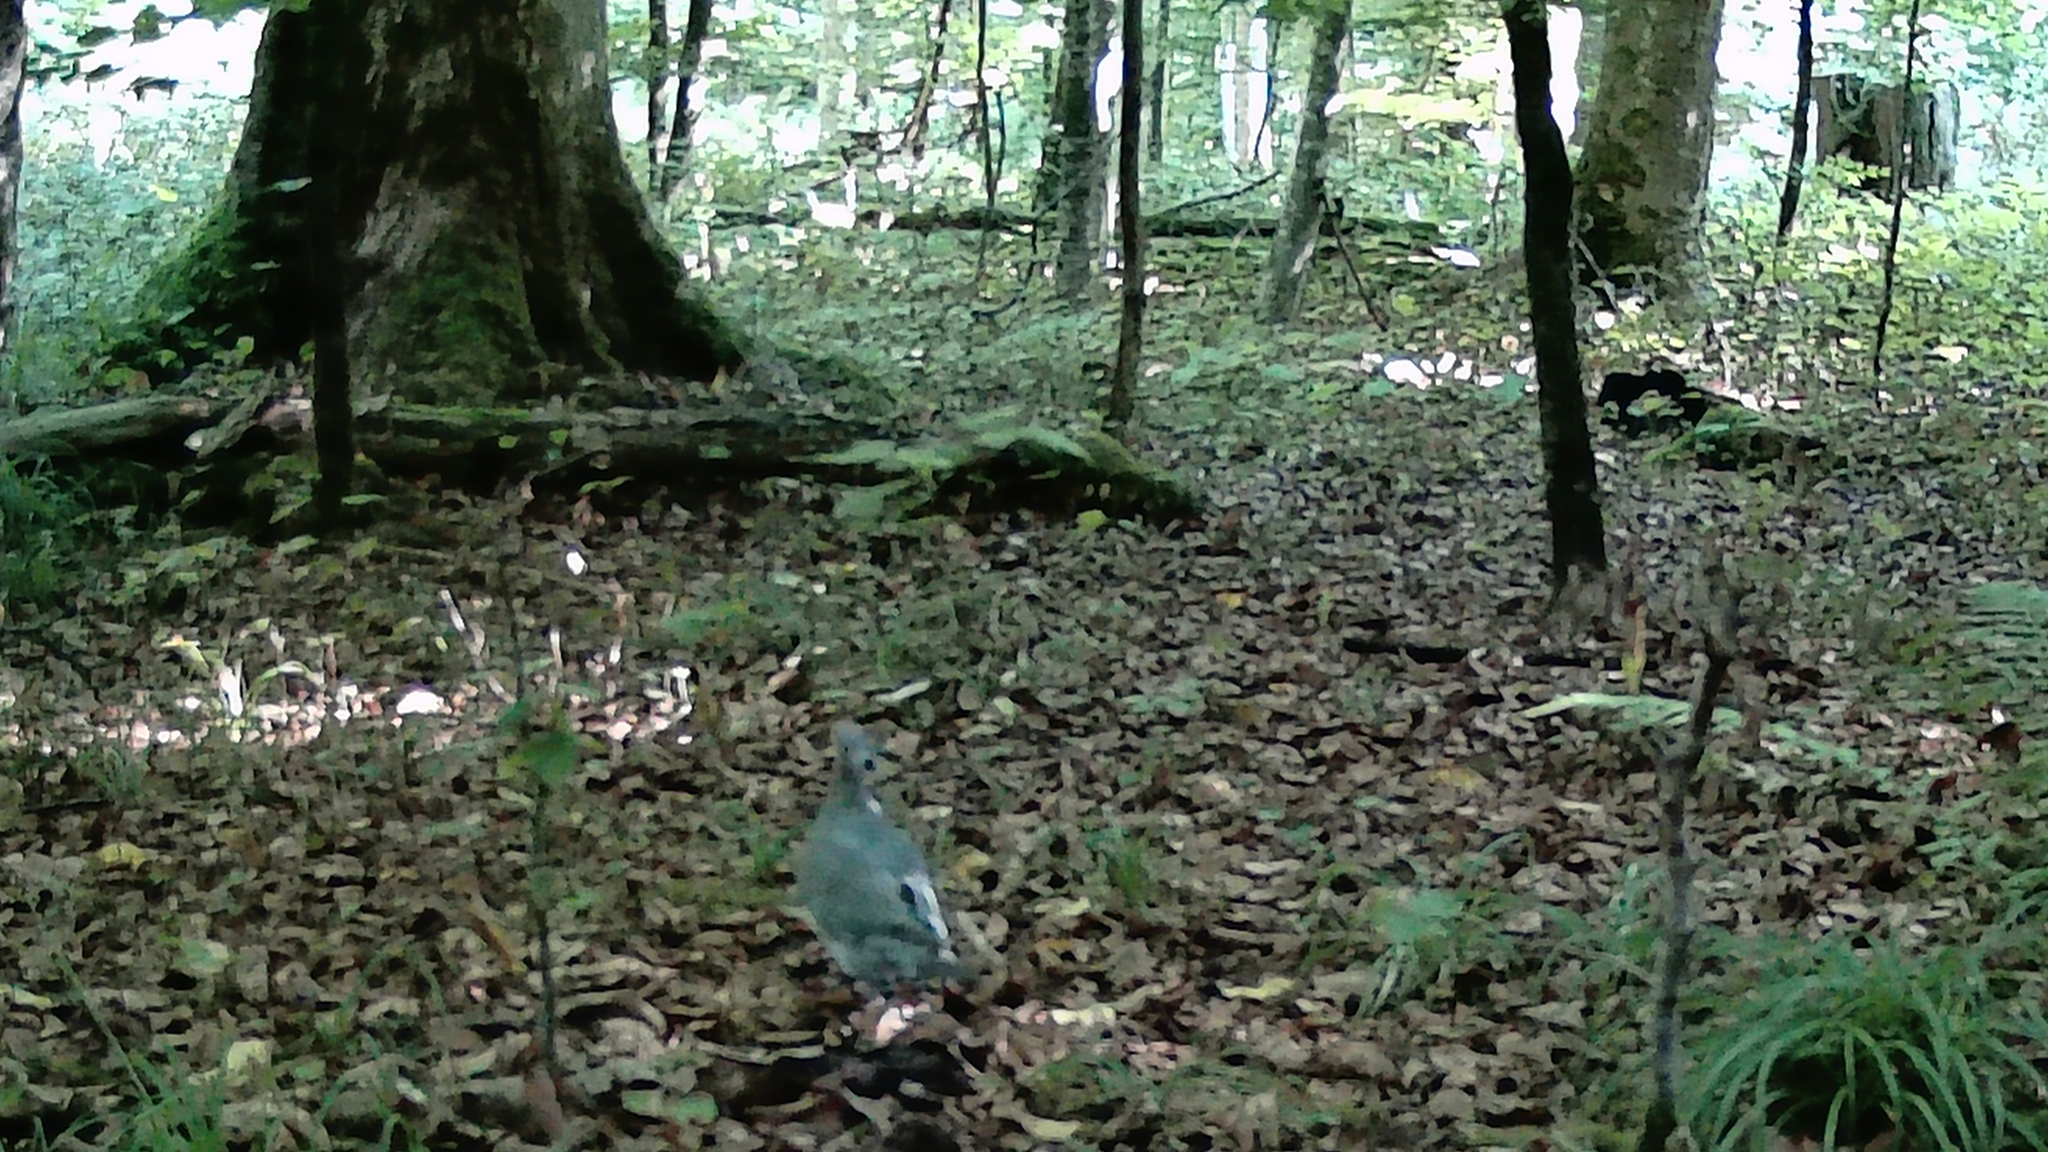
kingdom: Animalia
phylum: Chordata
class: Aves
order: Columbiformes
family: Columbidae
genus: Columba
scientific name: Columba palumbus
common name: Common wood pigeon
